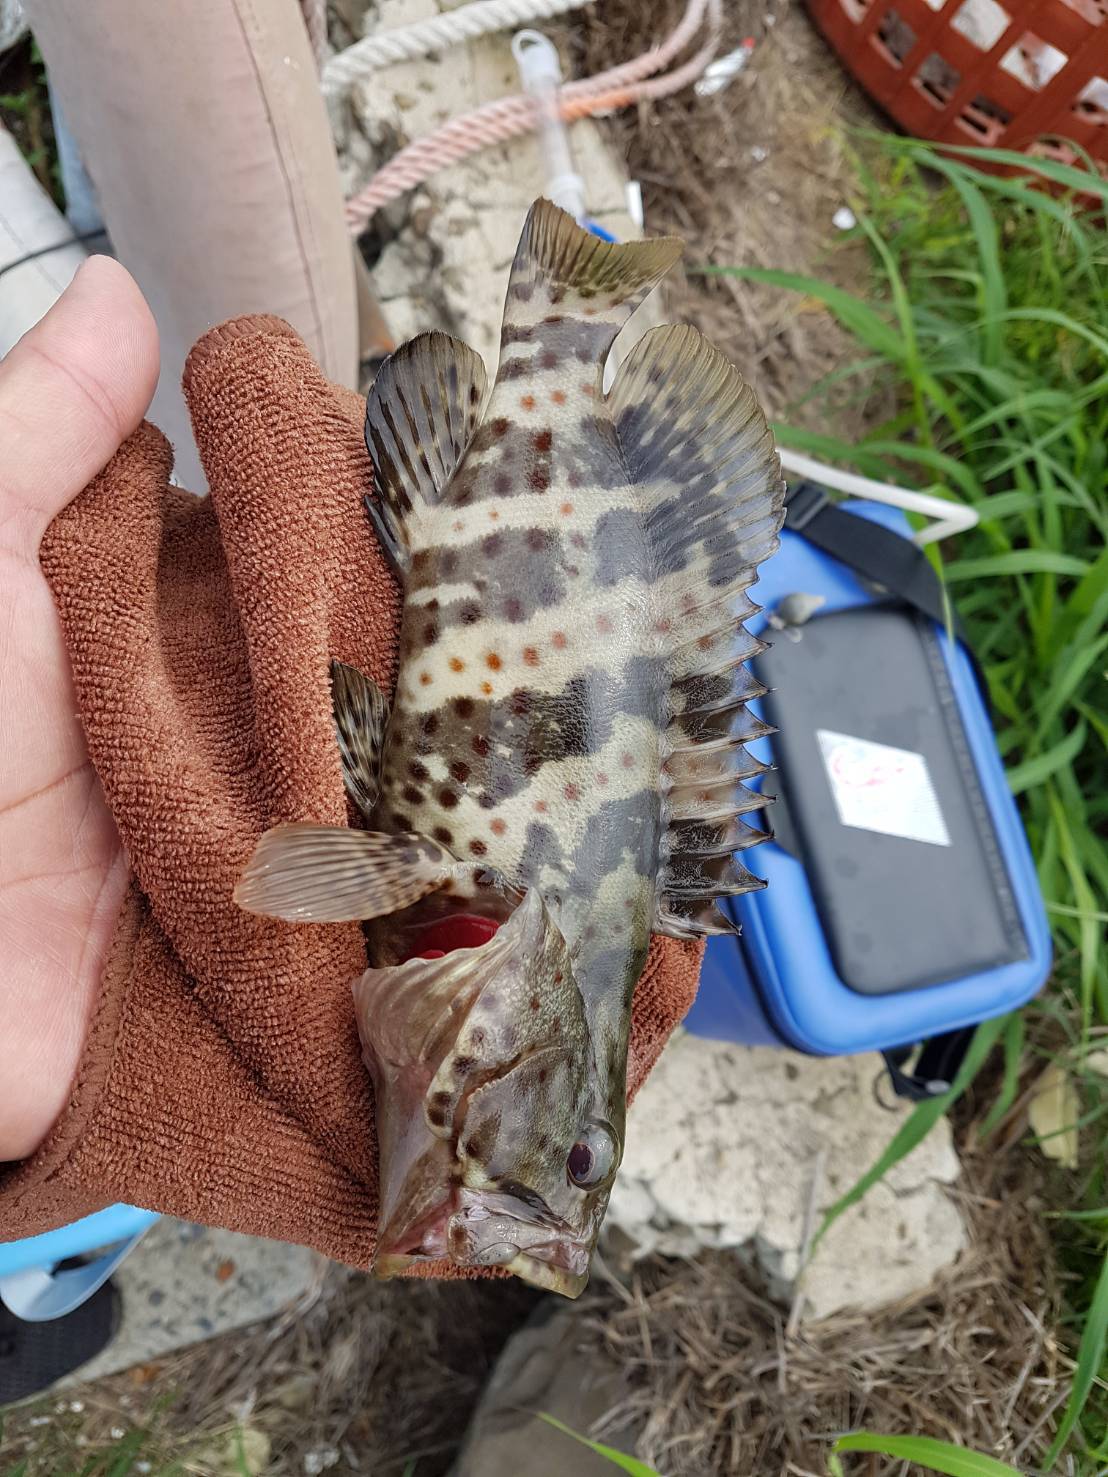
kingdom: Animalia
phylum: Chordata
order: Perciformes
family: Serranidae
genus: Epinephelus
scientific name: Epinephelus coioides
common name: Orange-spotted grouper
